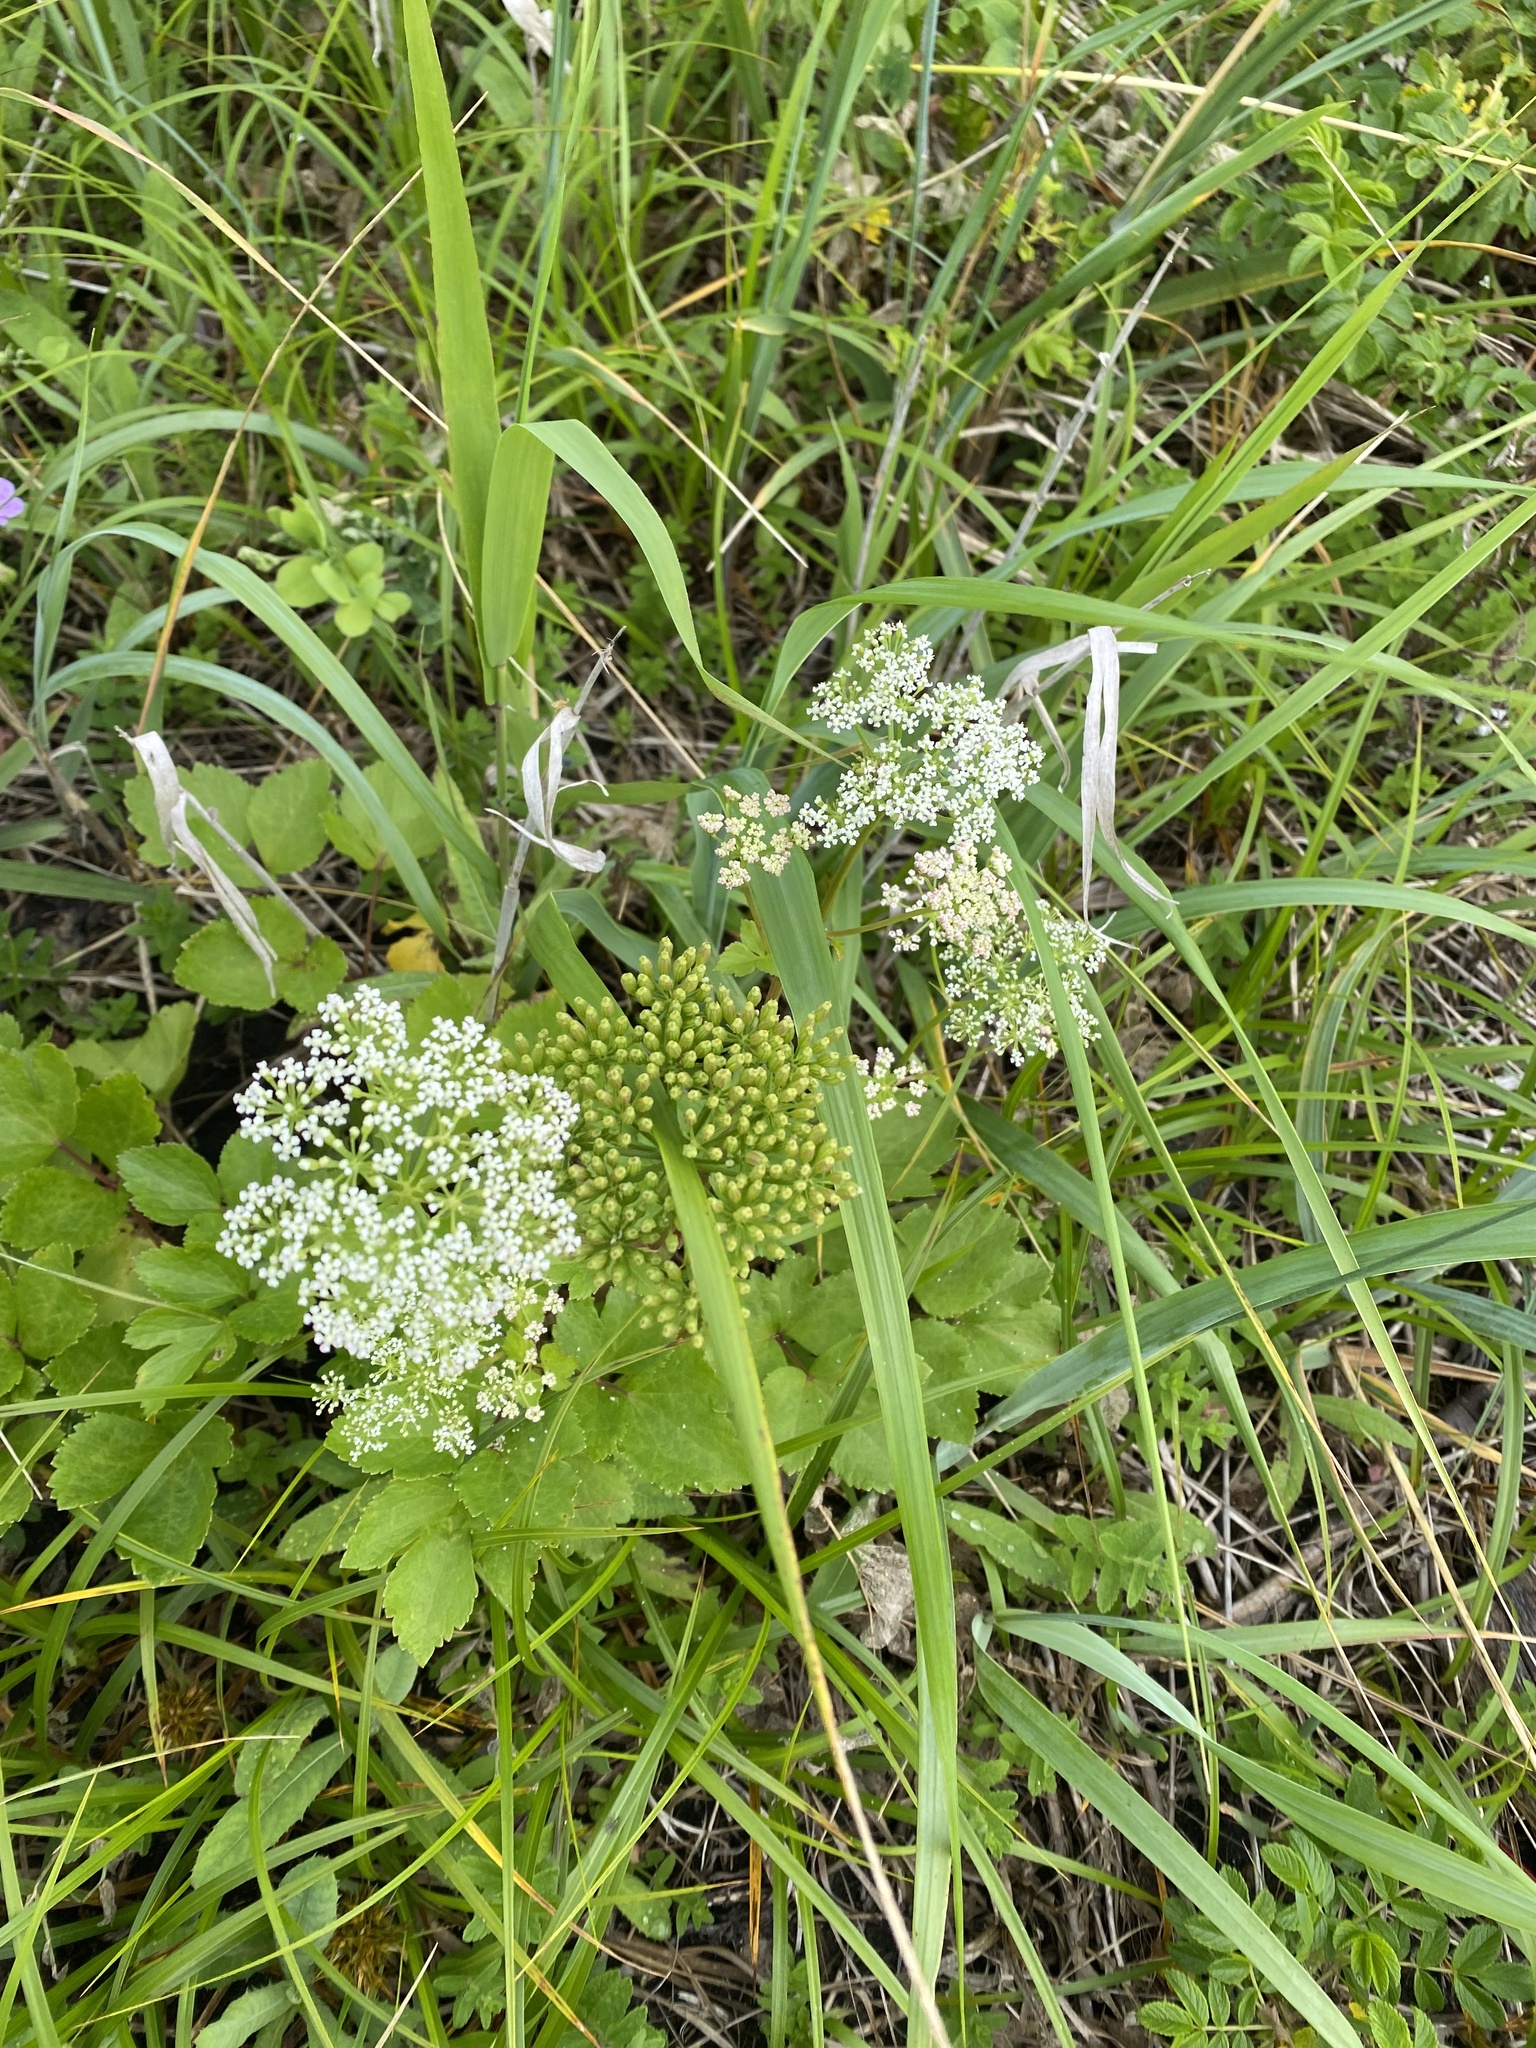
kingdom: Plantae
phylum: Tracheophyta
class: Magnoliopsida
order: Apiales
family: Apiaceae
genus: Ligusticum
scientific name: Ligusticum scothicum
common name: Beach lovage
